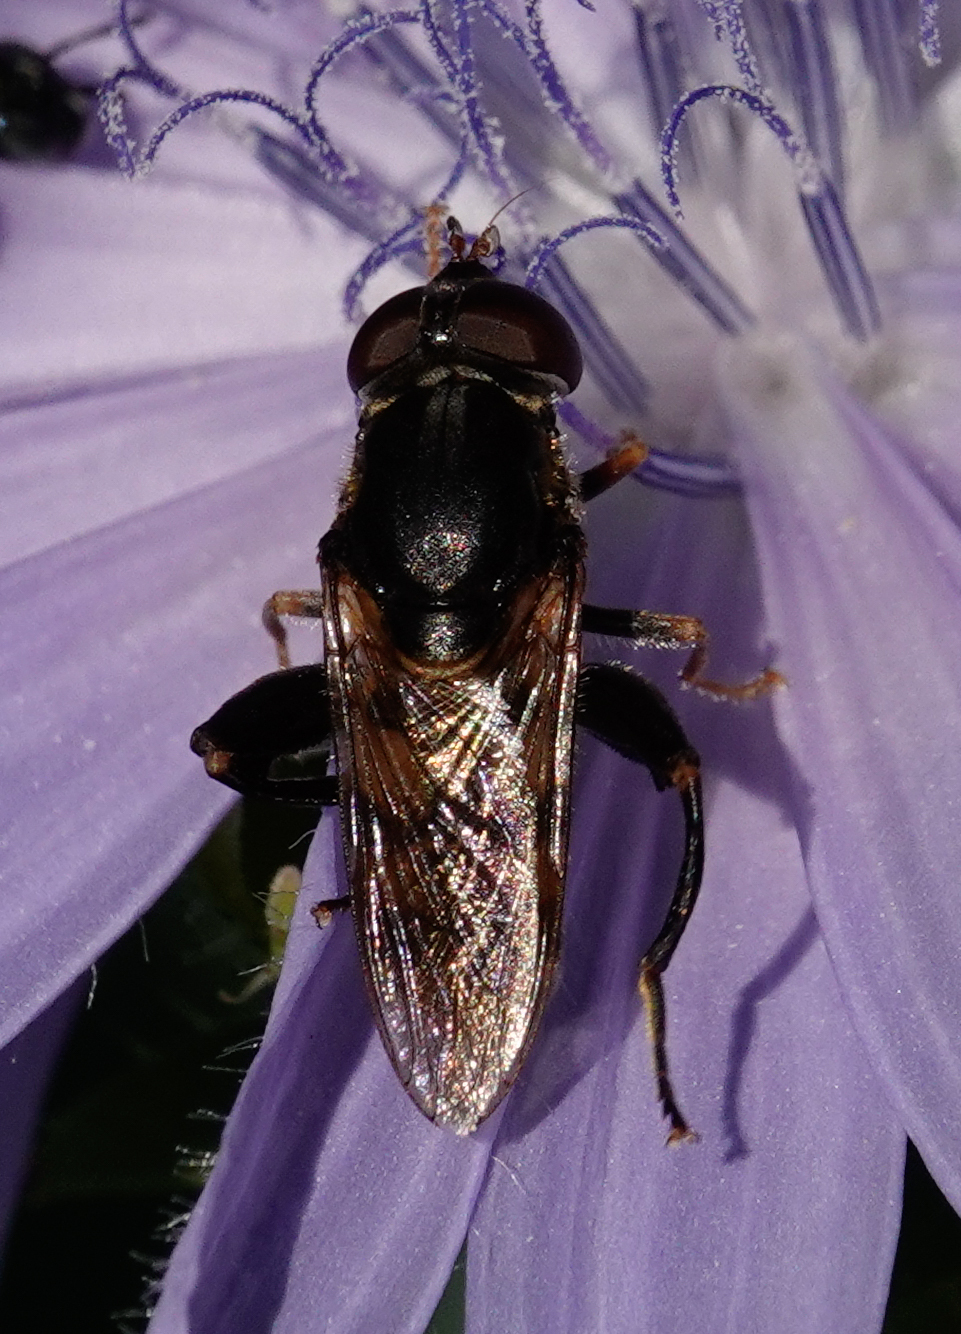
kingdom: Animalia
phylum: Arthropoda
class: Insecta
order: Diptera
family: Syrphidae
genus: Tropidia
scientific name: Tropidia quadrata
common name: Common thick-legged fly
